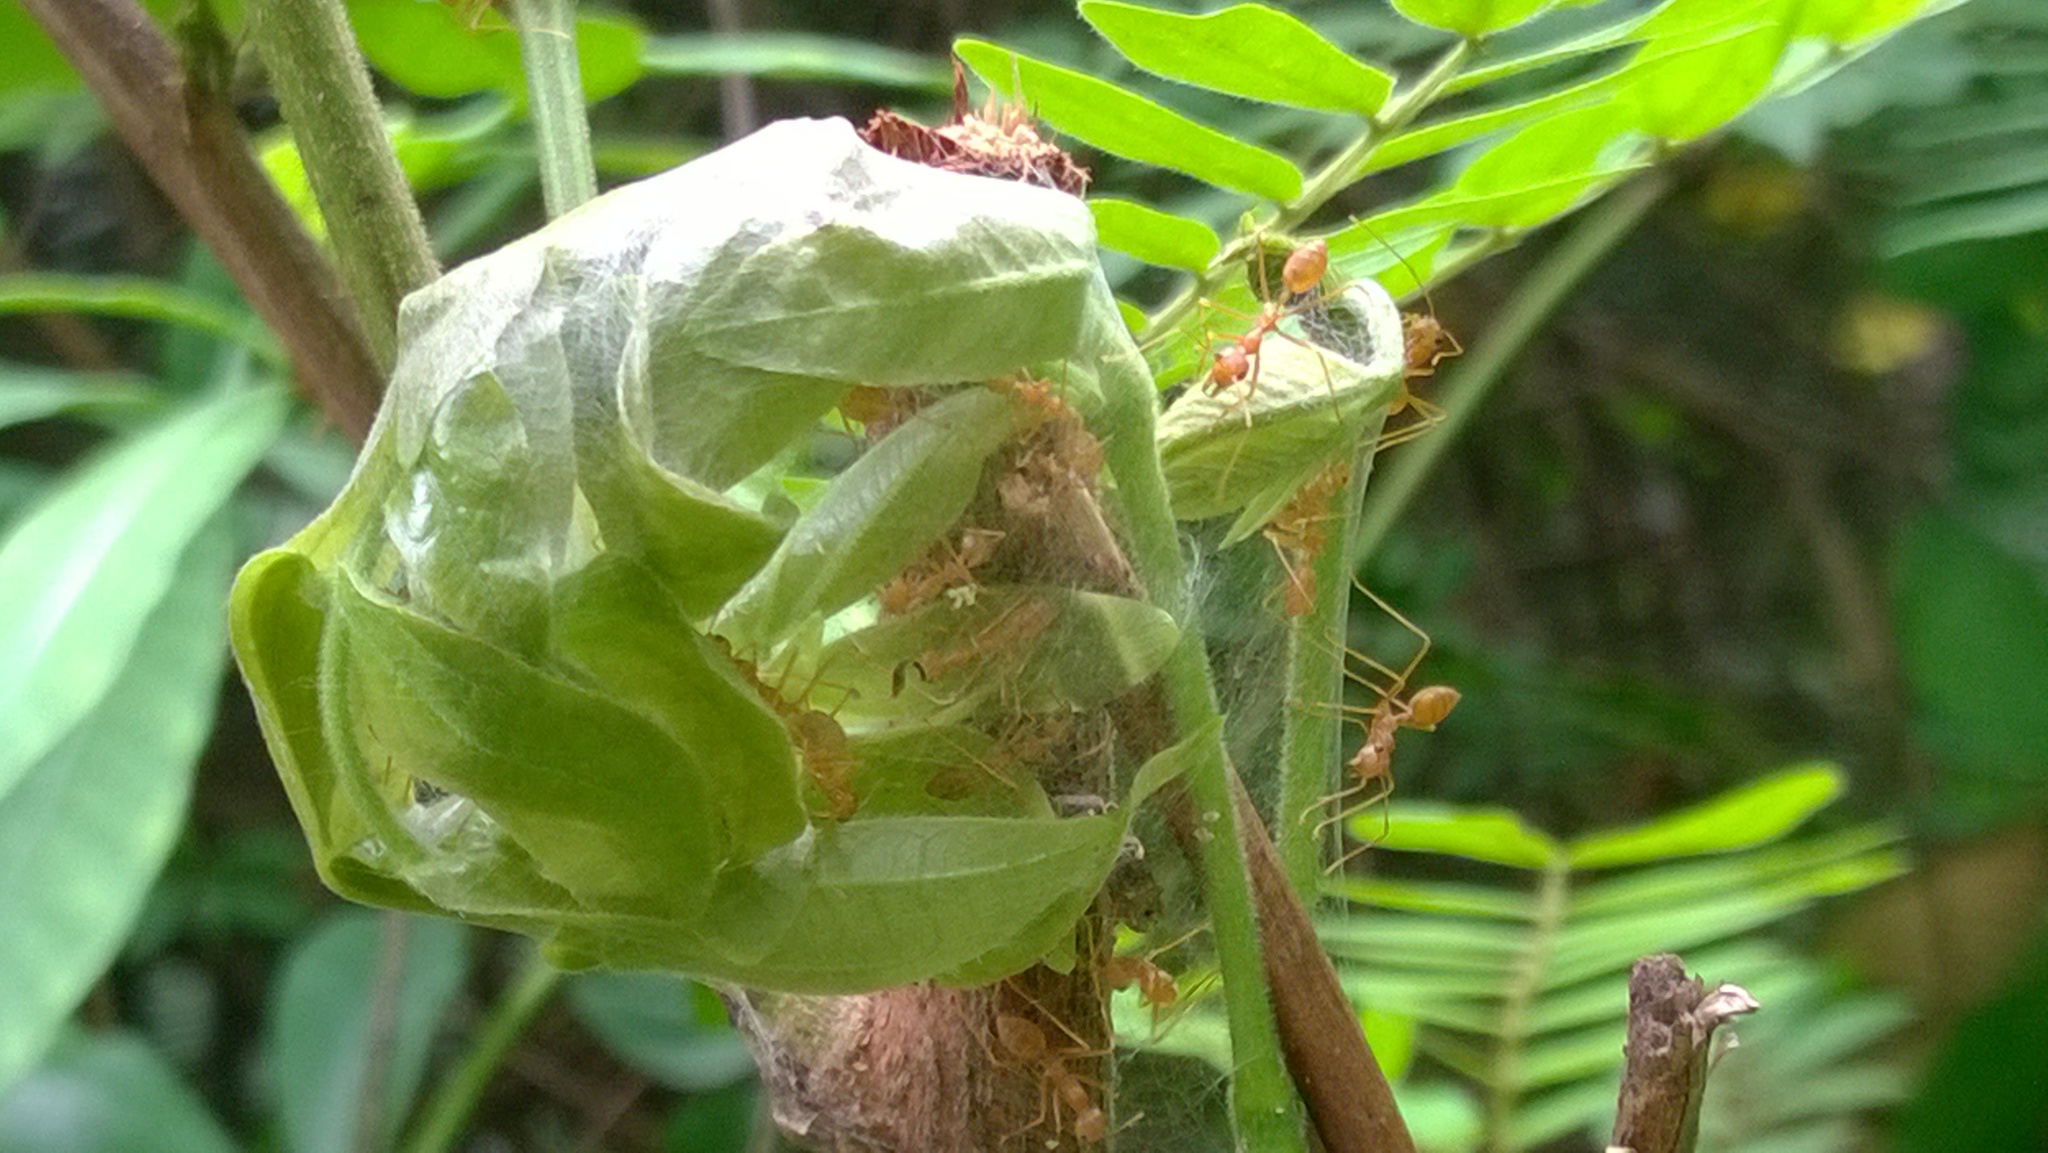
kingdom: Animalia
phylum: Arthropoda
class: Insecta
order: Hymenoptera
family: Formicidae
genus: Oecophylla
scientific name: Oecophylla smaragdina
